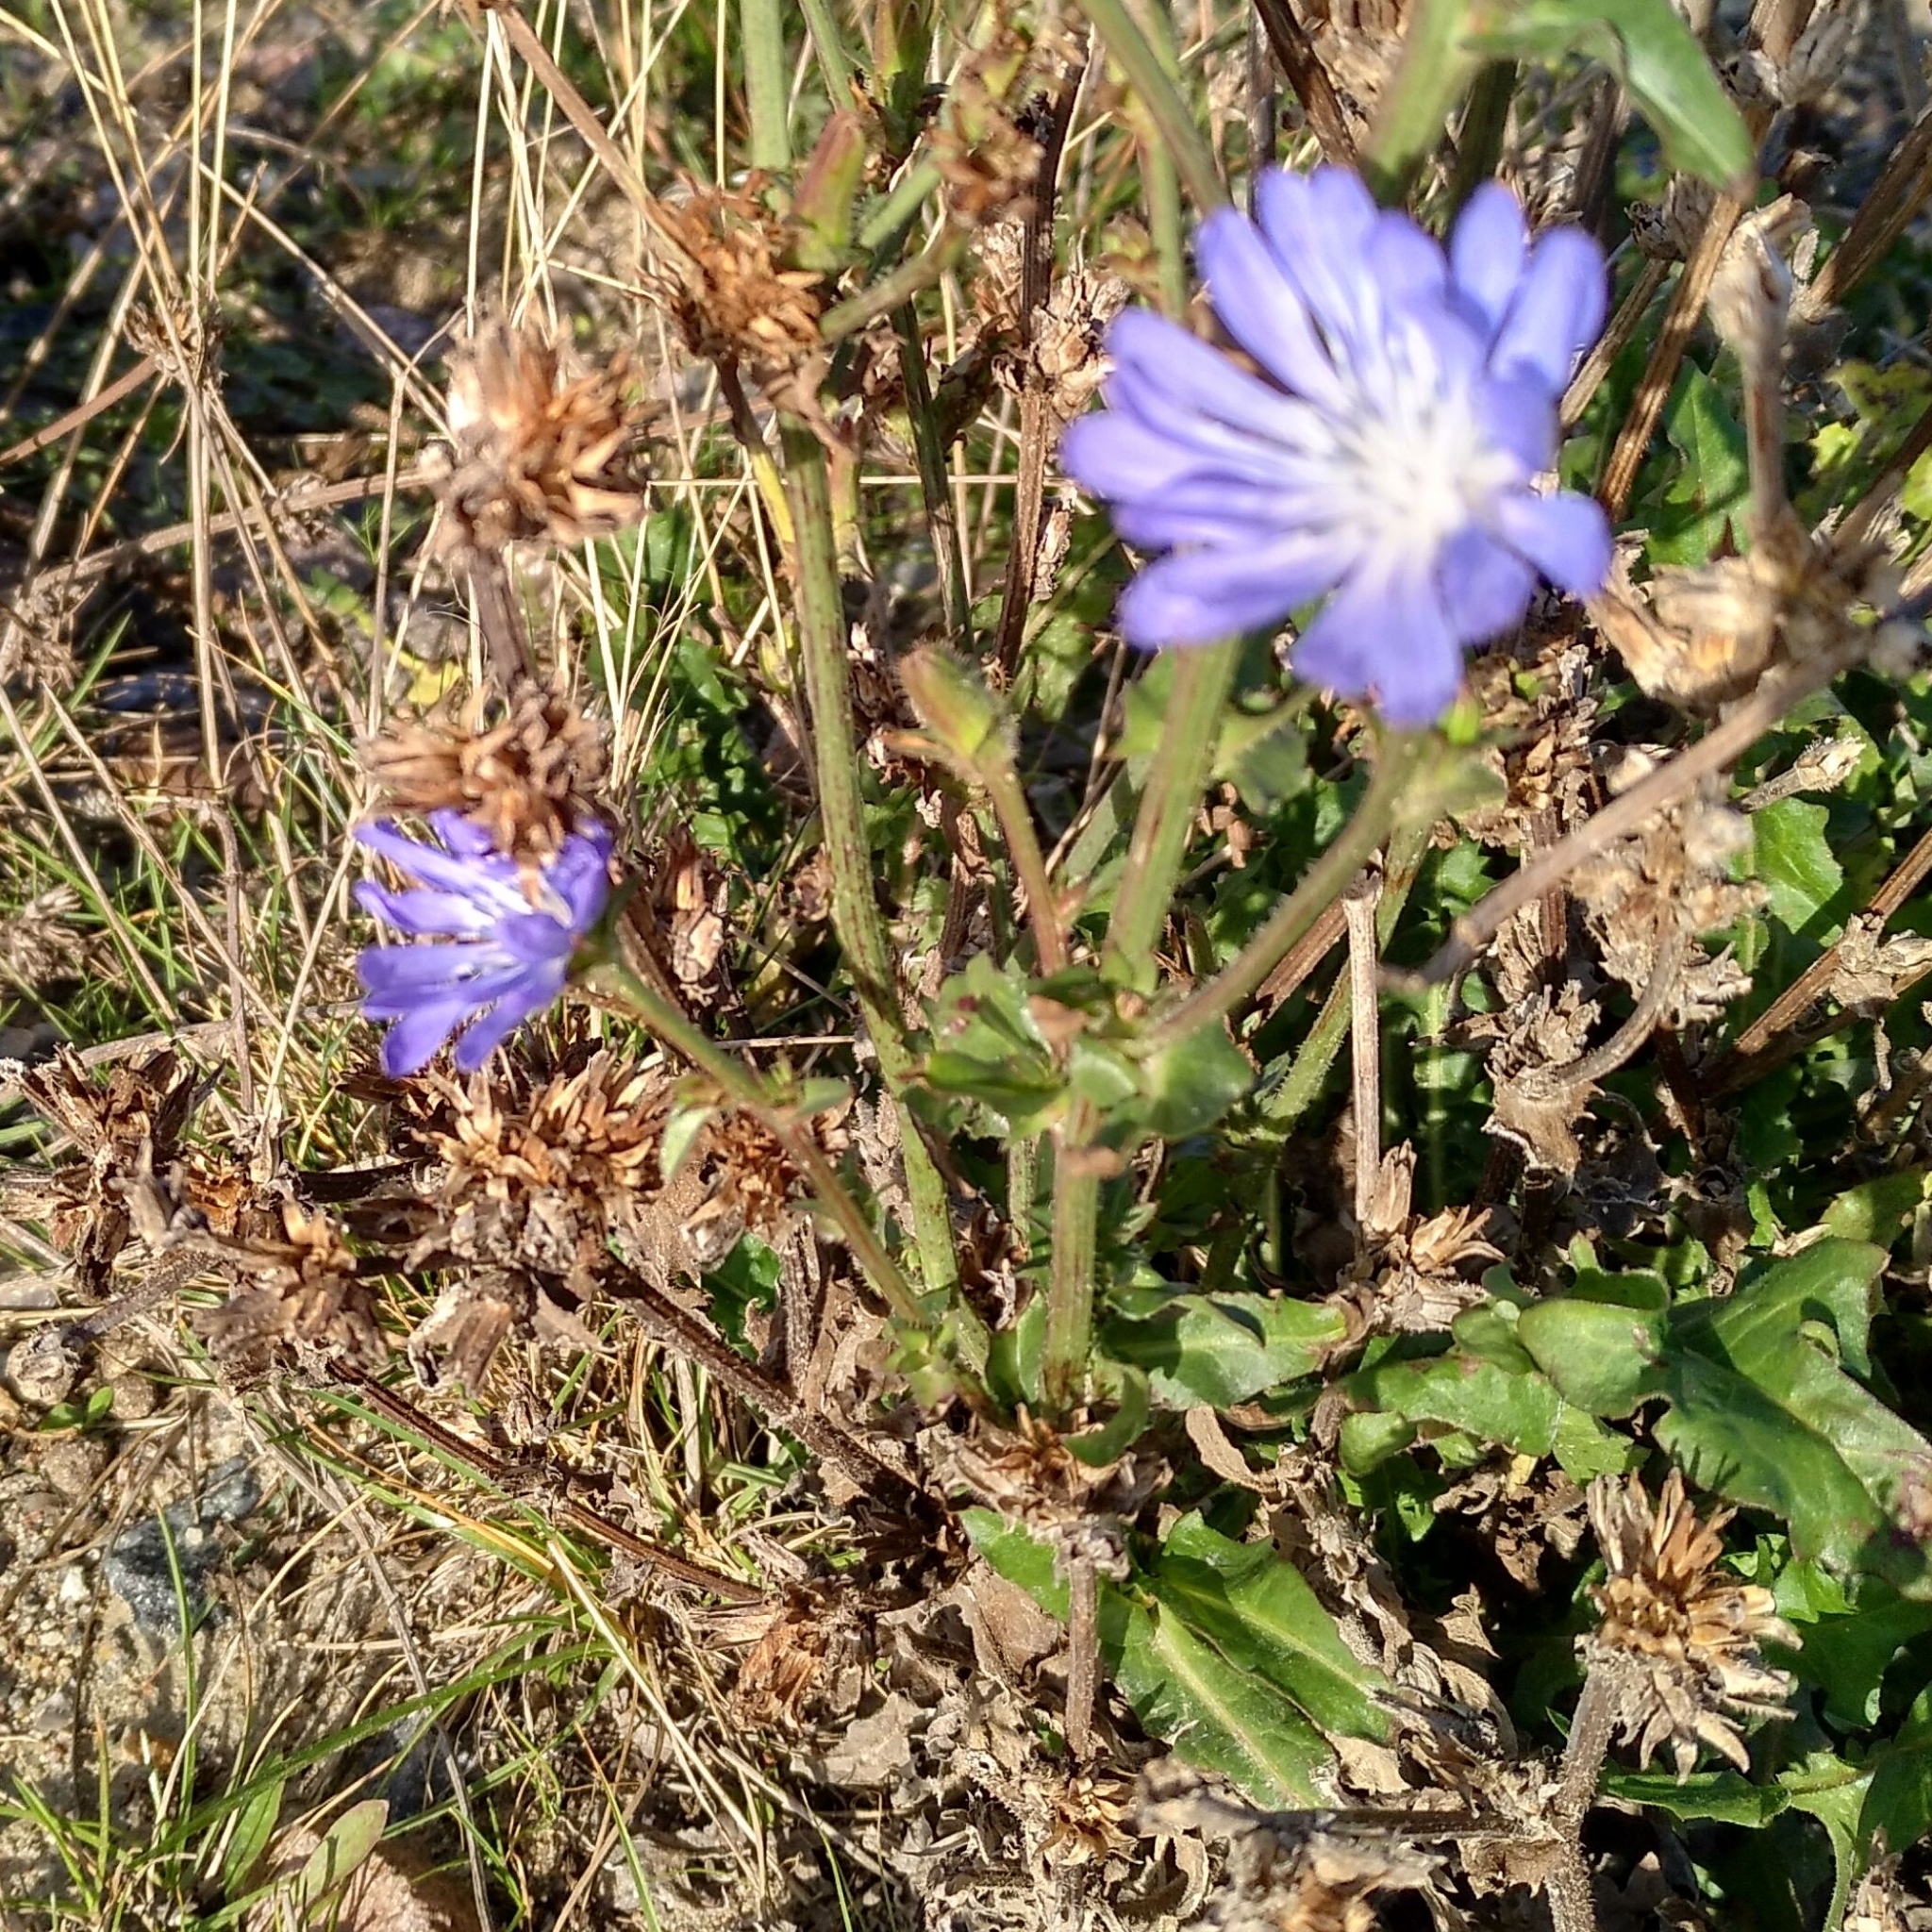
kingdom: Plantae
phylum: Tracheophyta
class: Magnoliopsida
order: Asterales
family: Asteraceae
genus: Cichorium
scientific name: Cichorium intybus
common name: Chicory
